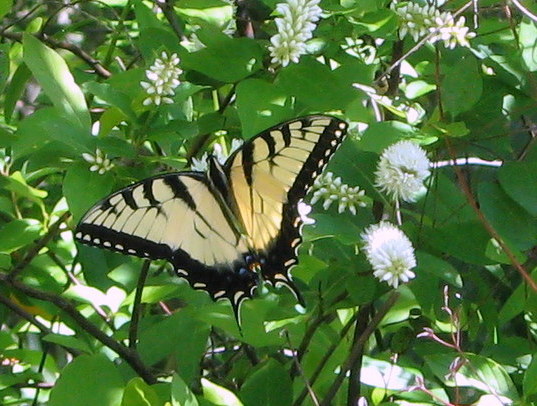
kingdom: Animalia
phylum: Arthropoda
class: Insecta
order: Lepidoptera
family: Papilionidae
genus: Papilio
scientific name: Papilio glaucus
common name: Tiger swallowtail
